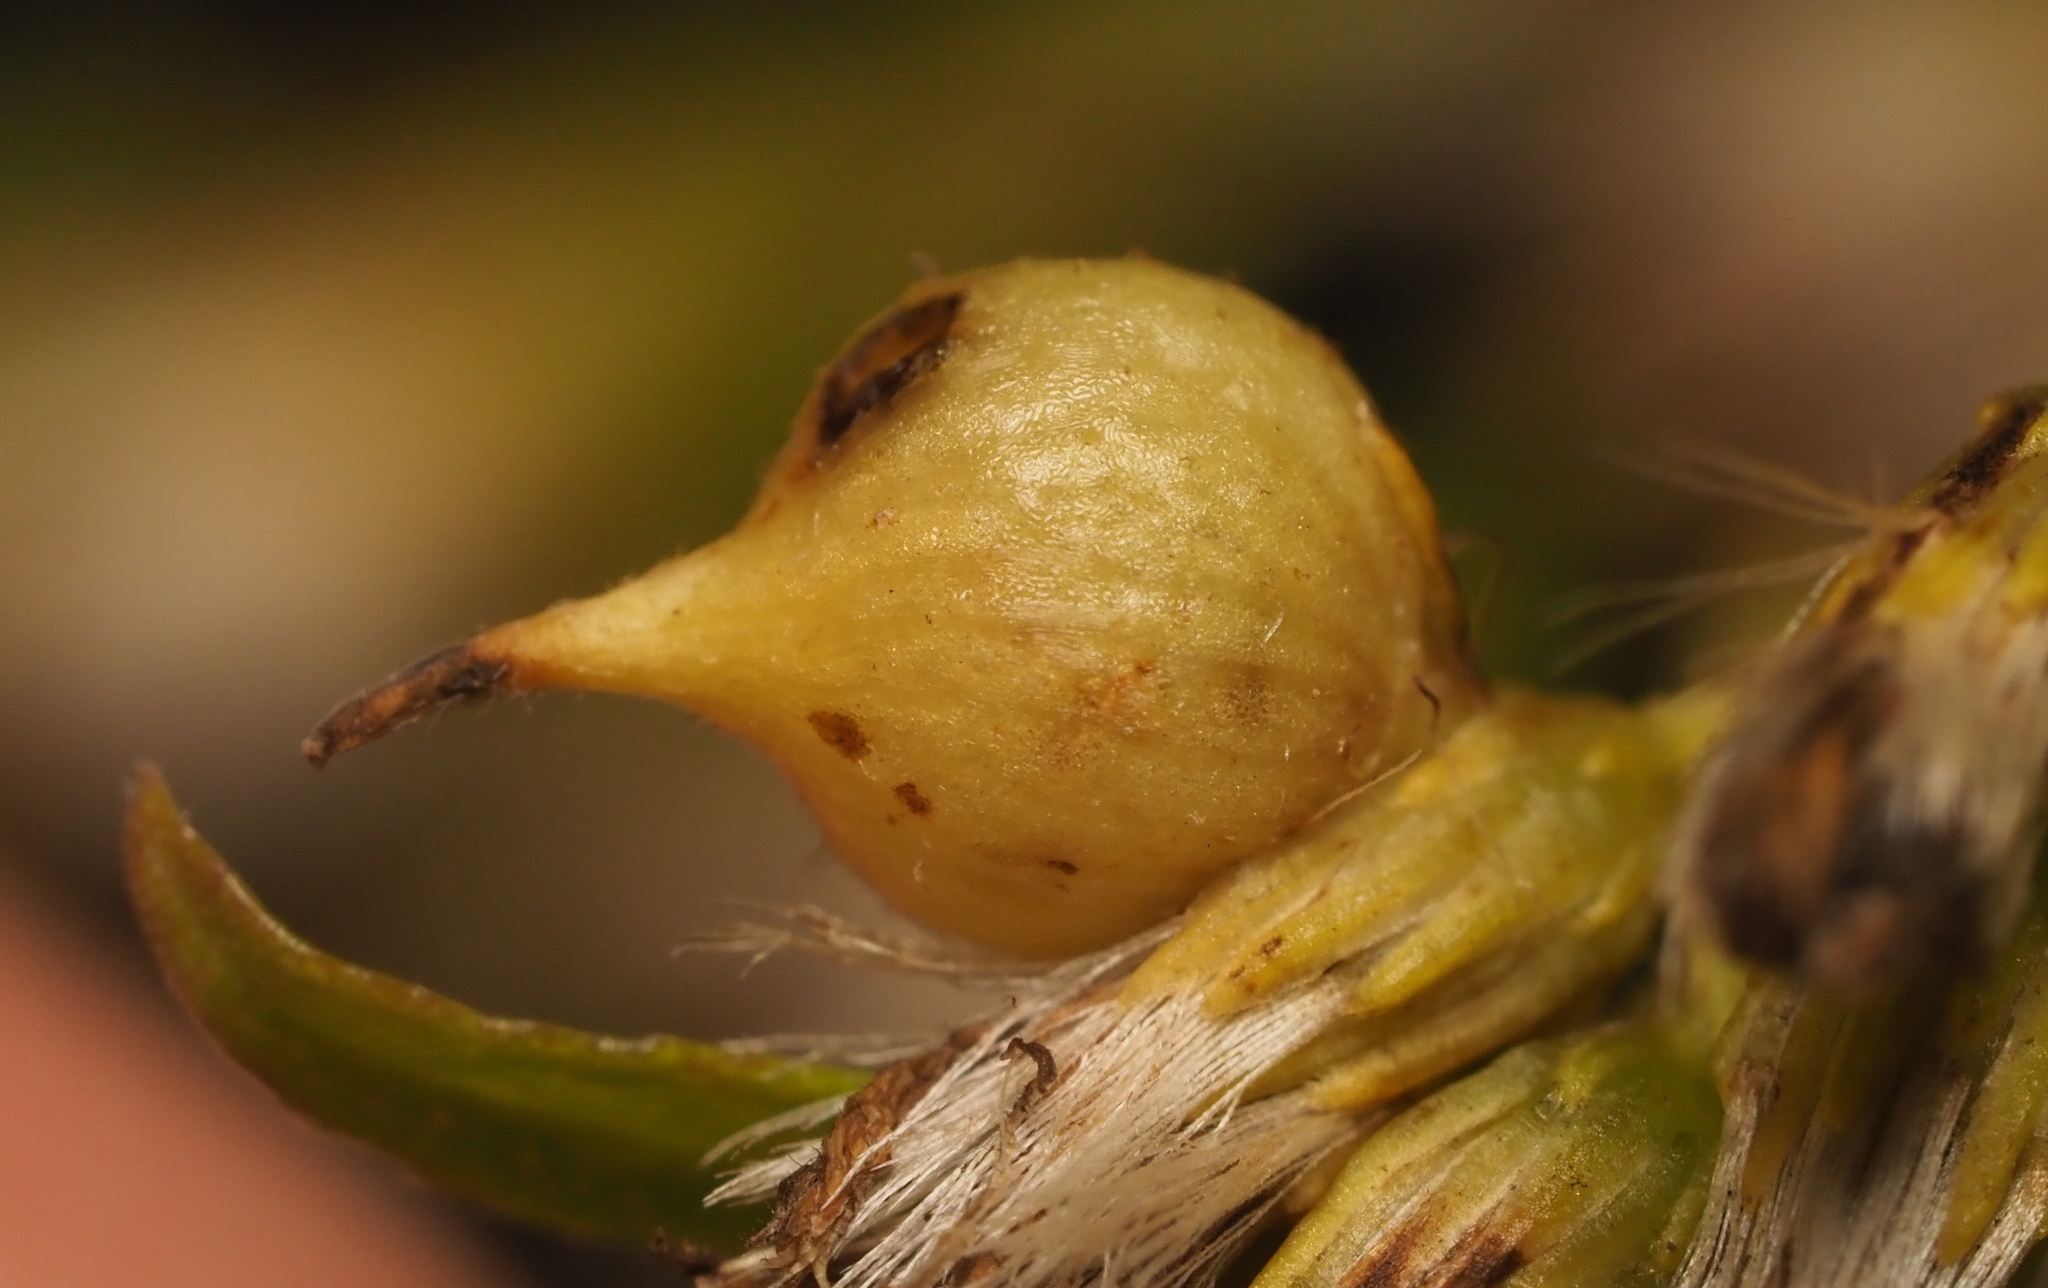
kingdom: Animalia
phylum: Arthropoda
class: Insecta
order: Diptera
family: Cecidomyiidae
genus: Schizomyia
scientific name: Schizomyia racemicola
